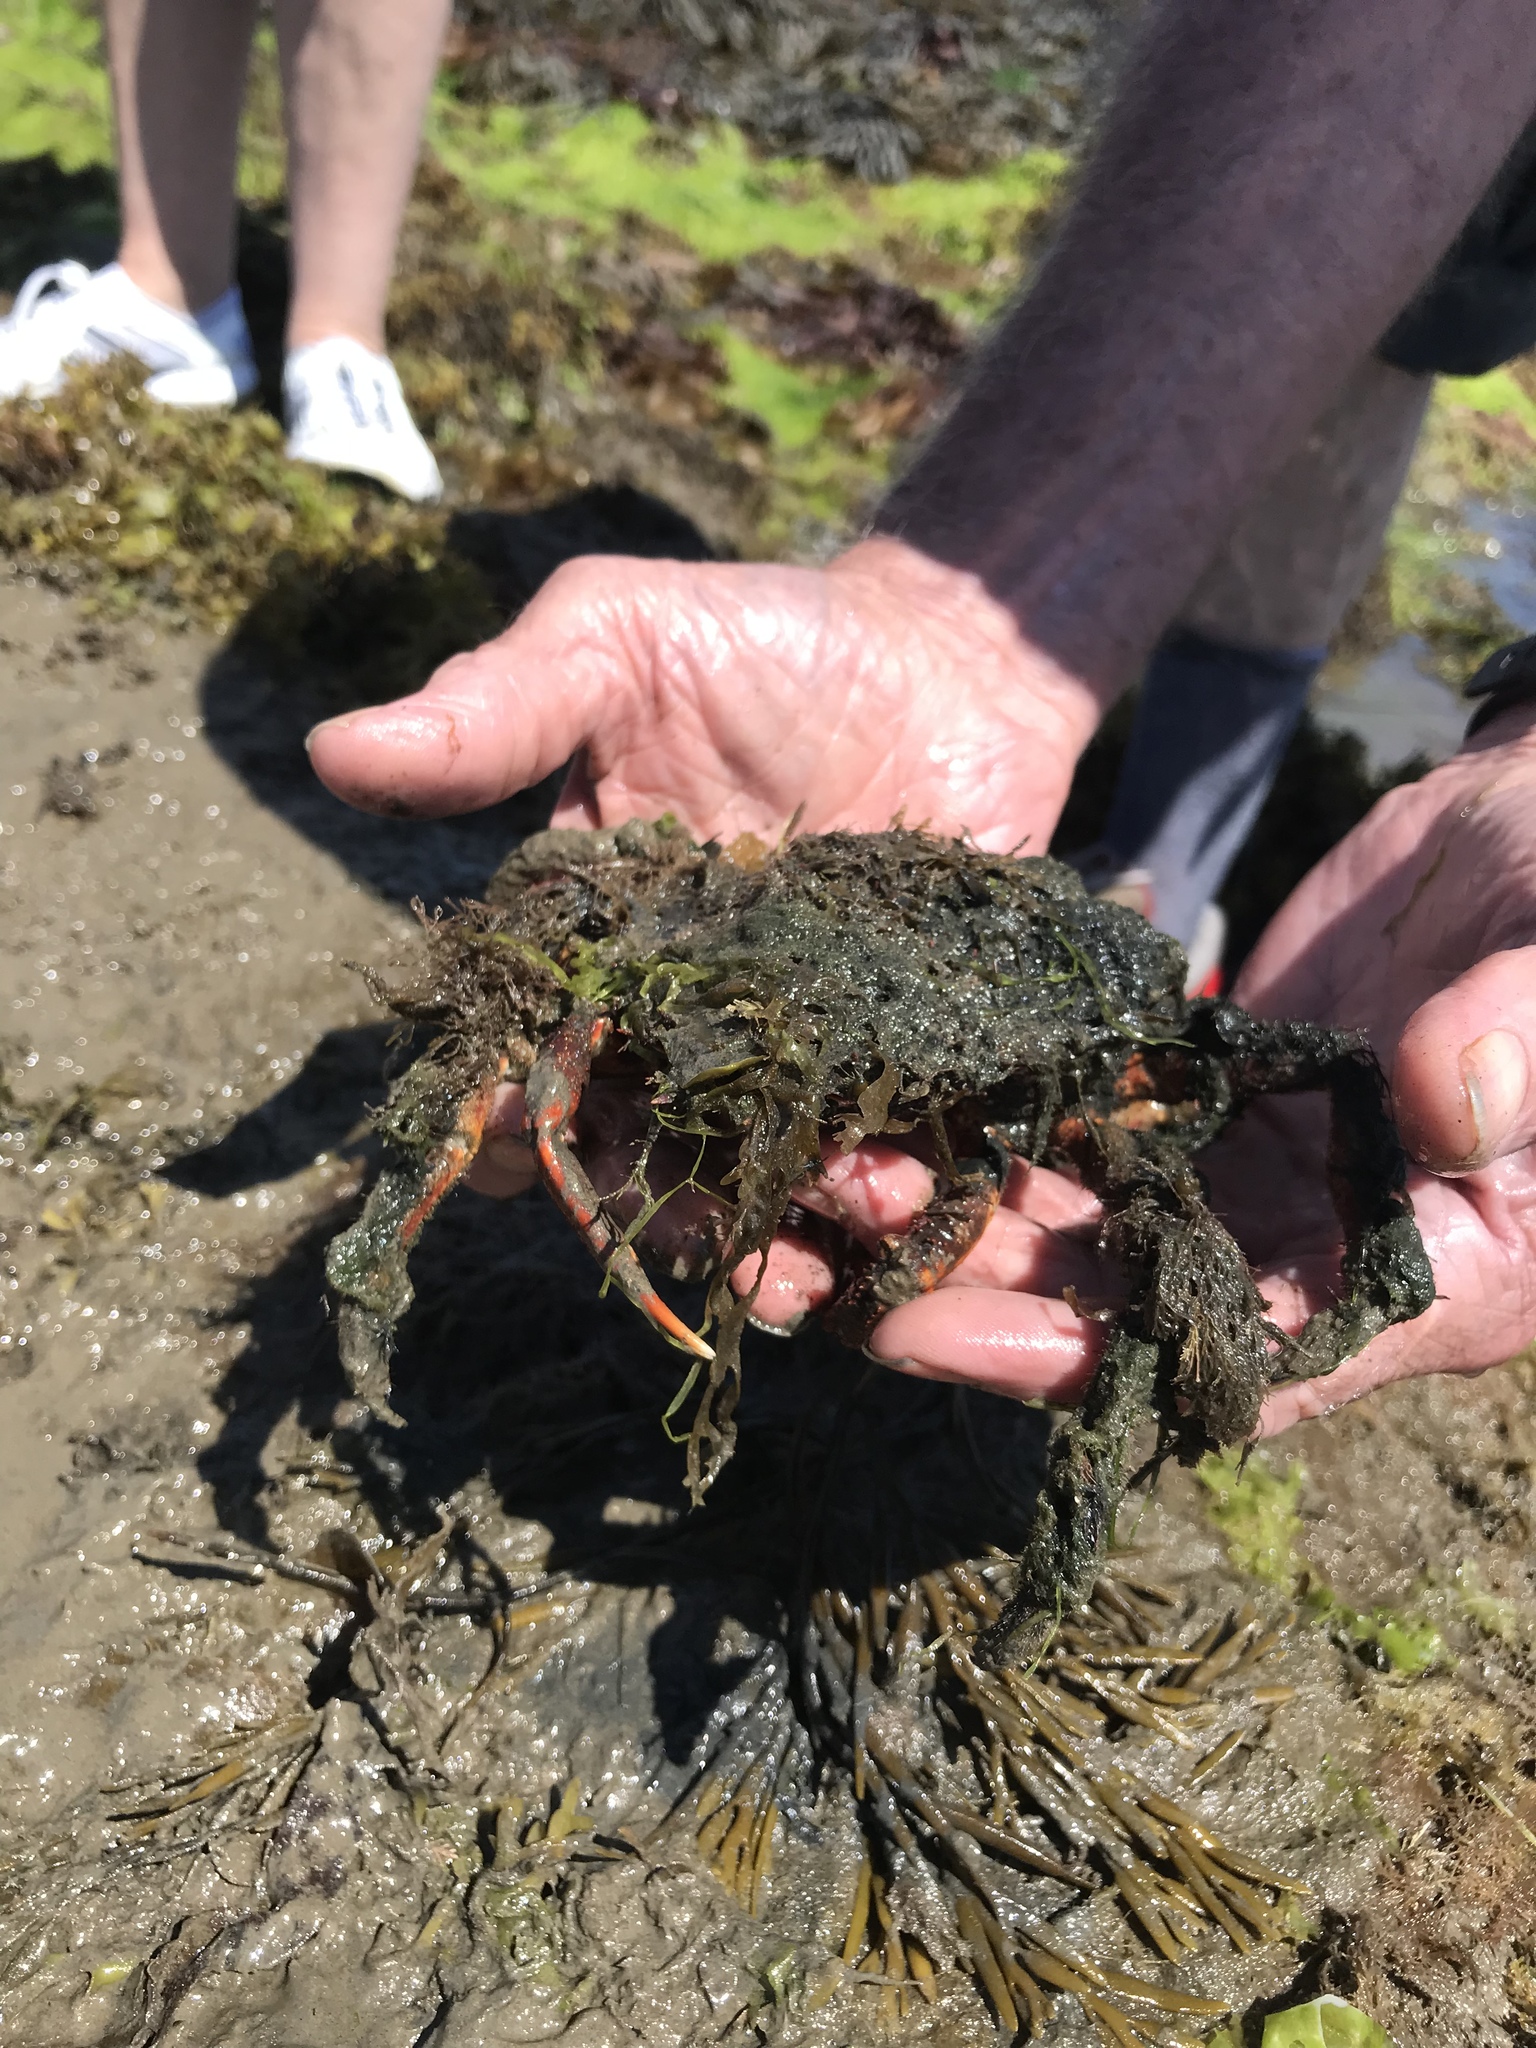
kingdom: Animalia
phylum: Arthropoda
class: Malacostraca
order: Decapoda
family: Majidae
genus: Maja
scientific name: Maja brachydactyla
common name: Common spider crab
